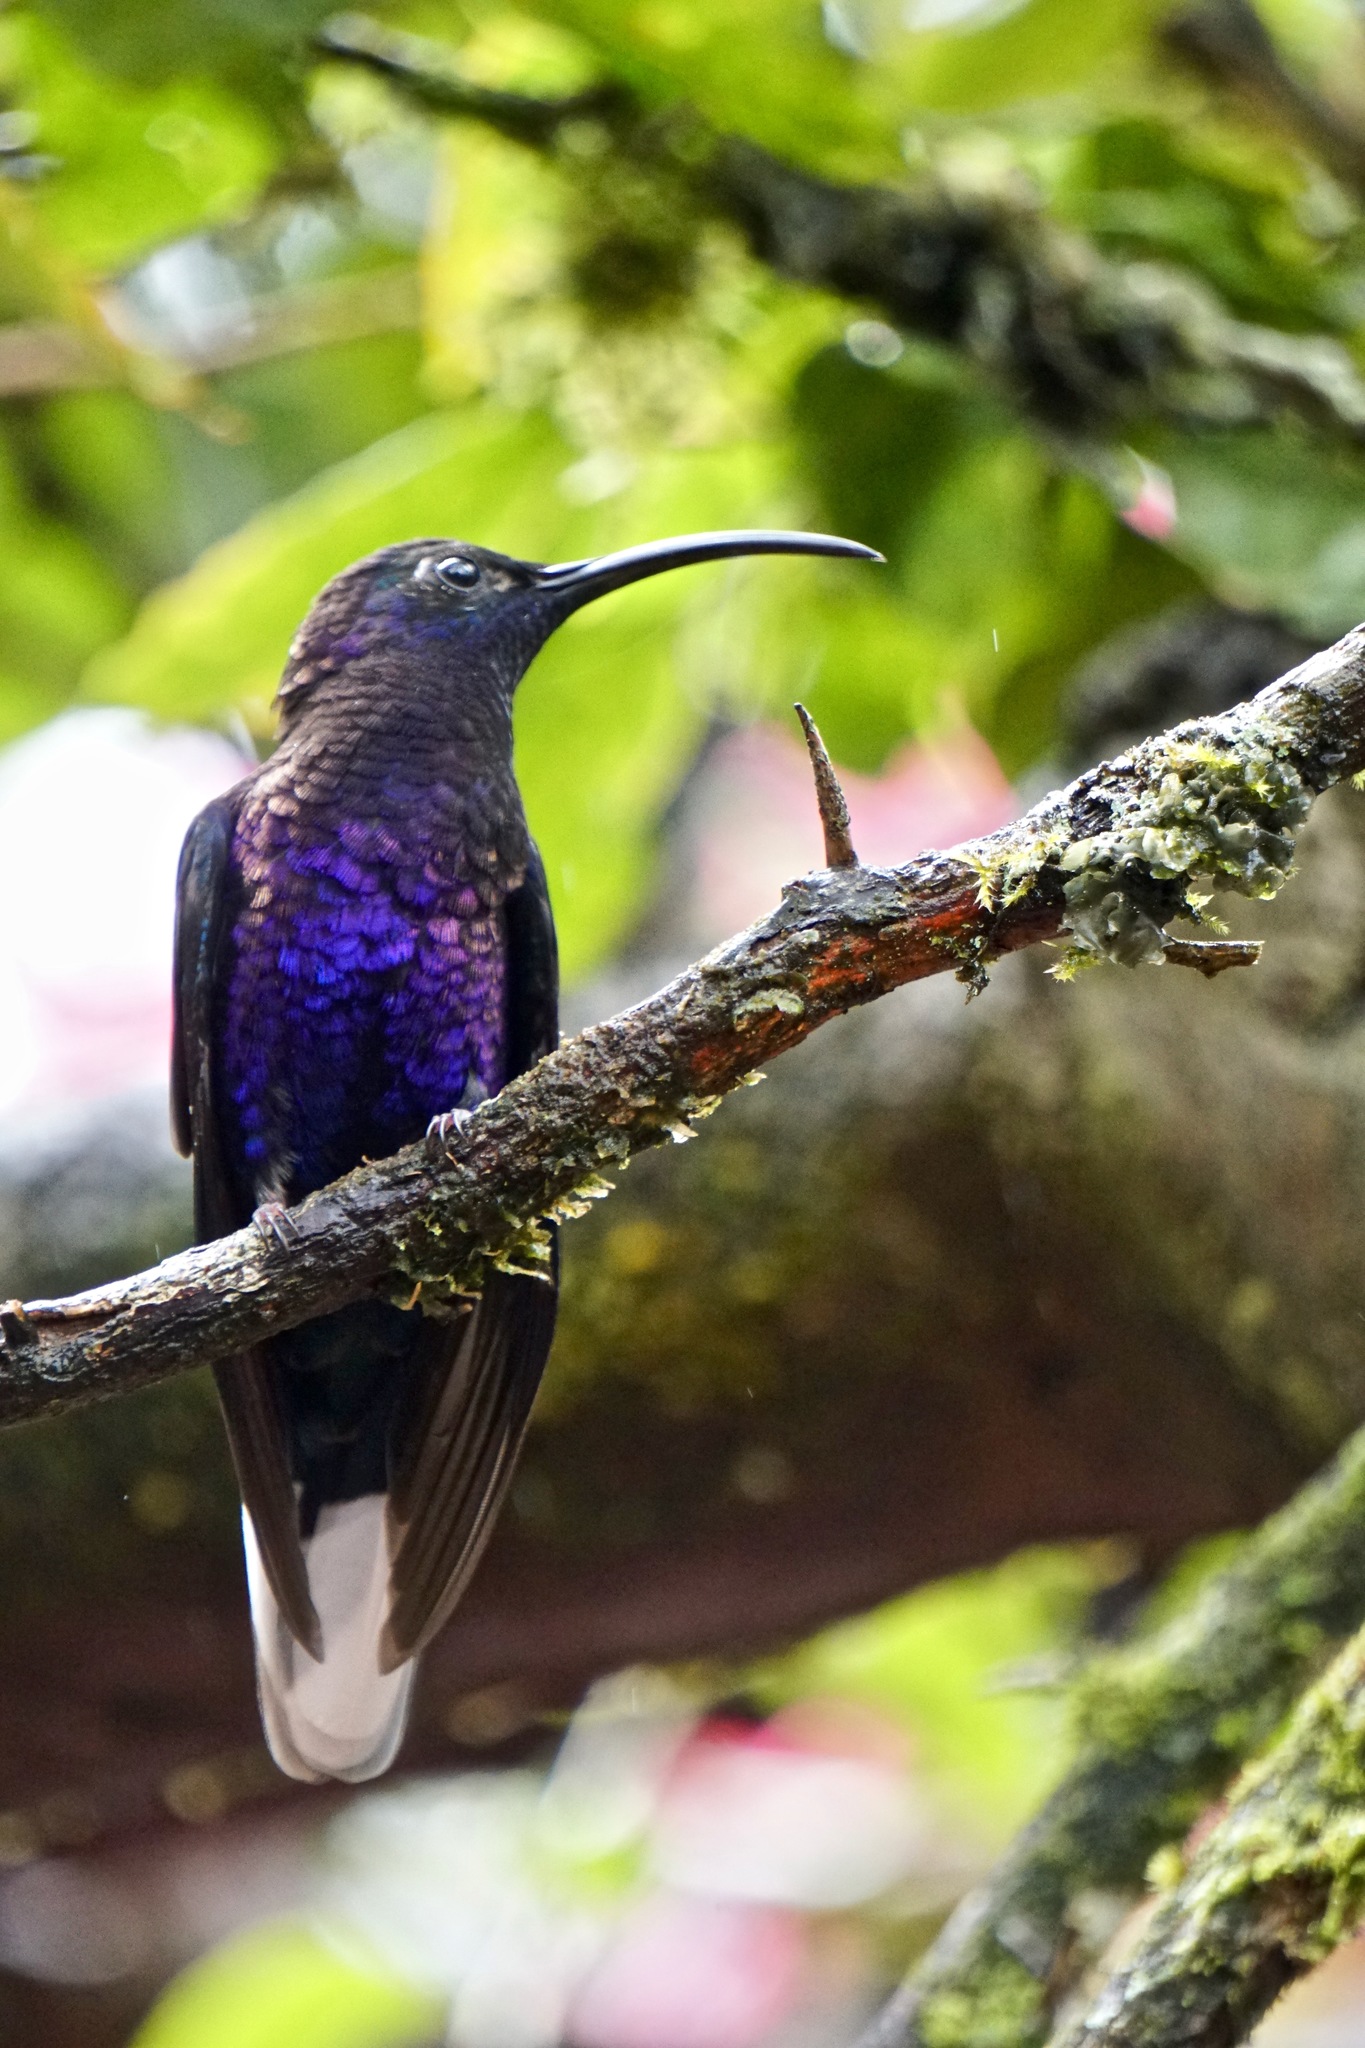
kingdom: Animalia
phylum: Chordata
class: Aves
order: Apodiformes
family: Trochilidae
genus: Campylopterus
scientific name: Campylopterus hemileucurus
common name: Violet sabrewing
